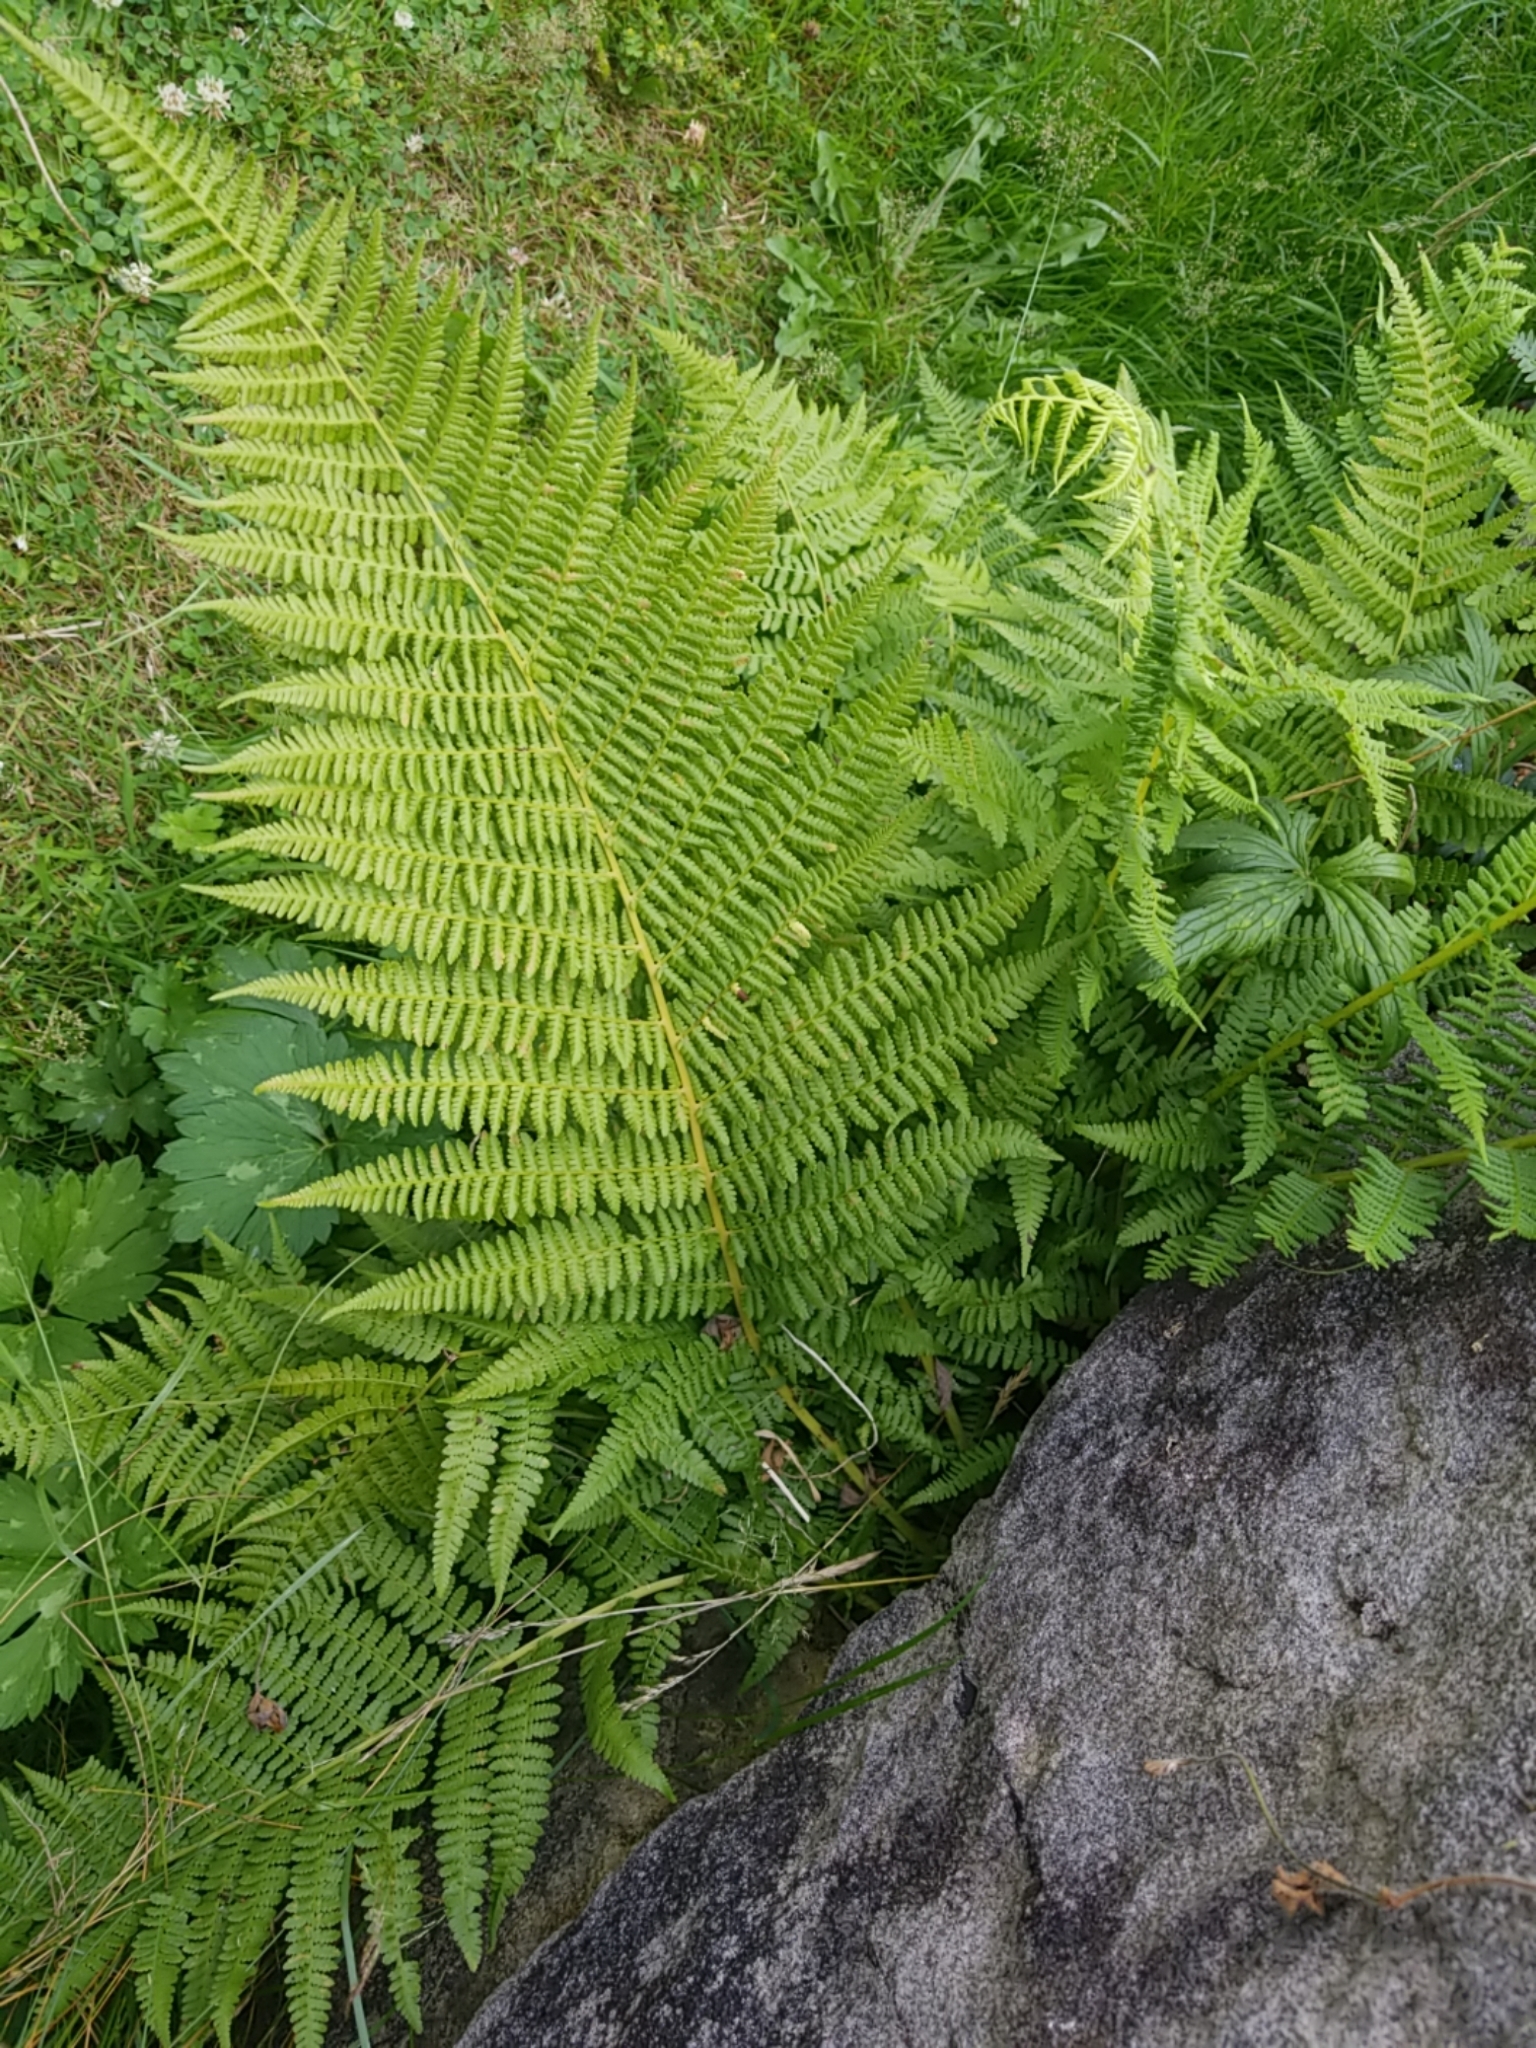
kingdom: Plantae
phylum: Tracheophyta
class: Polypodiopsida
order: Polypodiales
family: Athyriaceae
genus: Athyrium
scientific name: Athyrium filix-femina
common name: Lady fern
